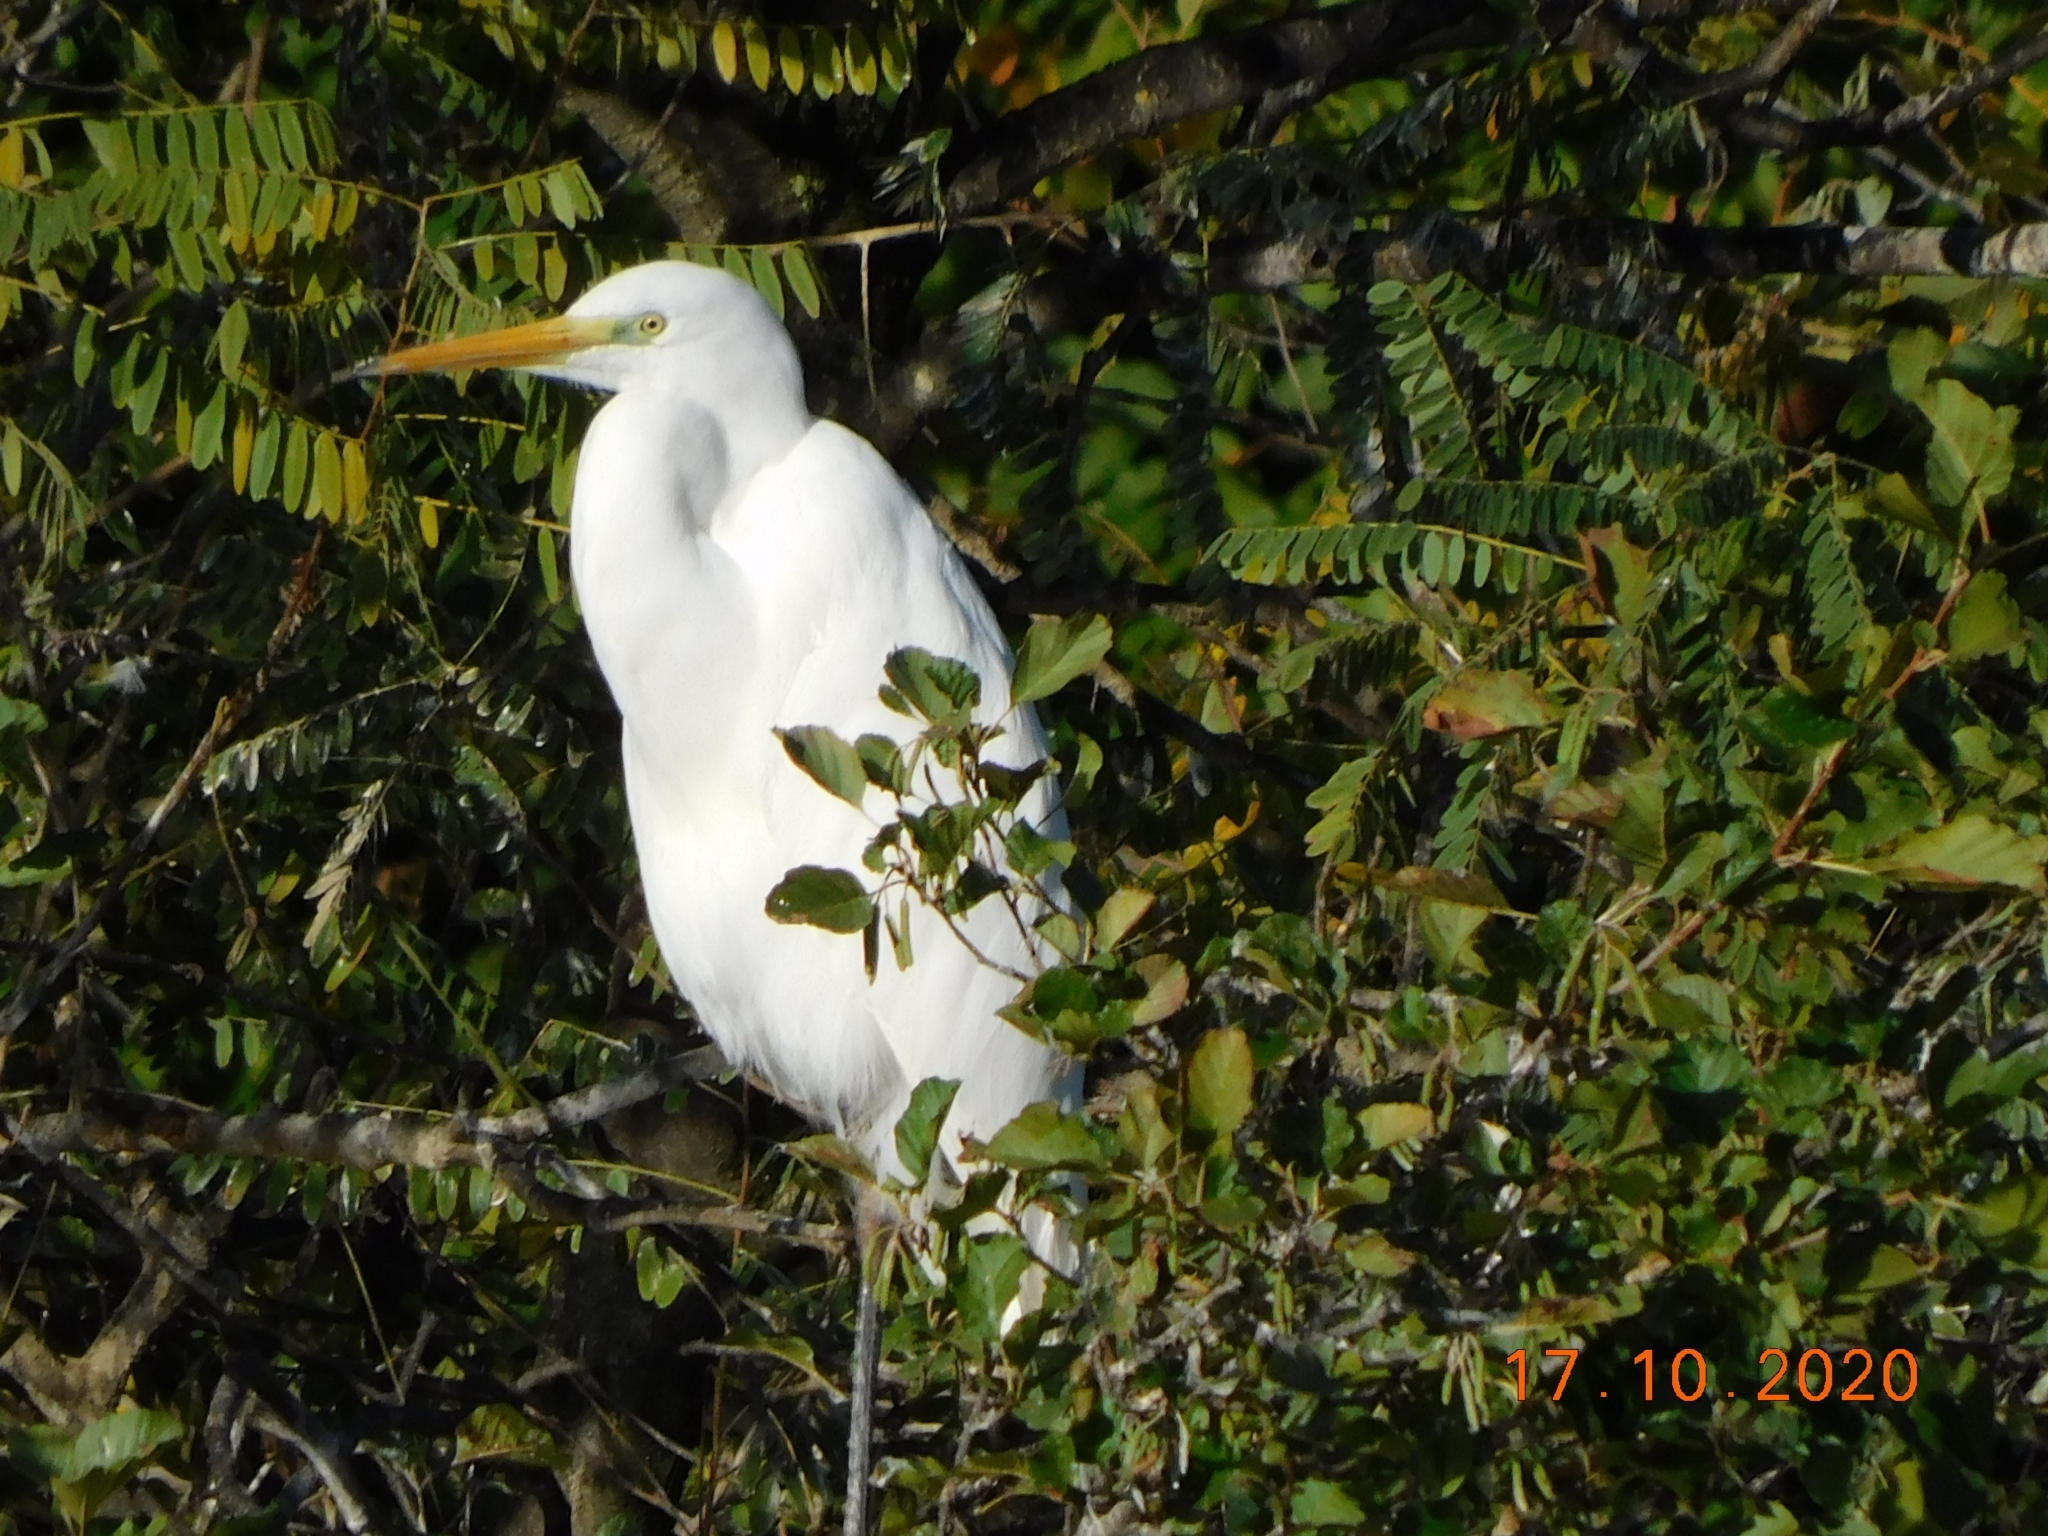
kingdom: Animalia
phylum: Chordata
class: Aves
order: Pelecaniformes
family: Ardeidae
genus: Ardea
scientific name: Ardea alba
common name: Great egret
